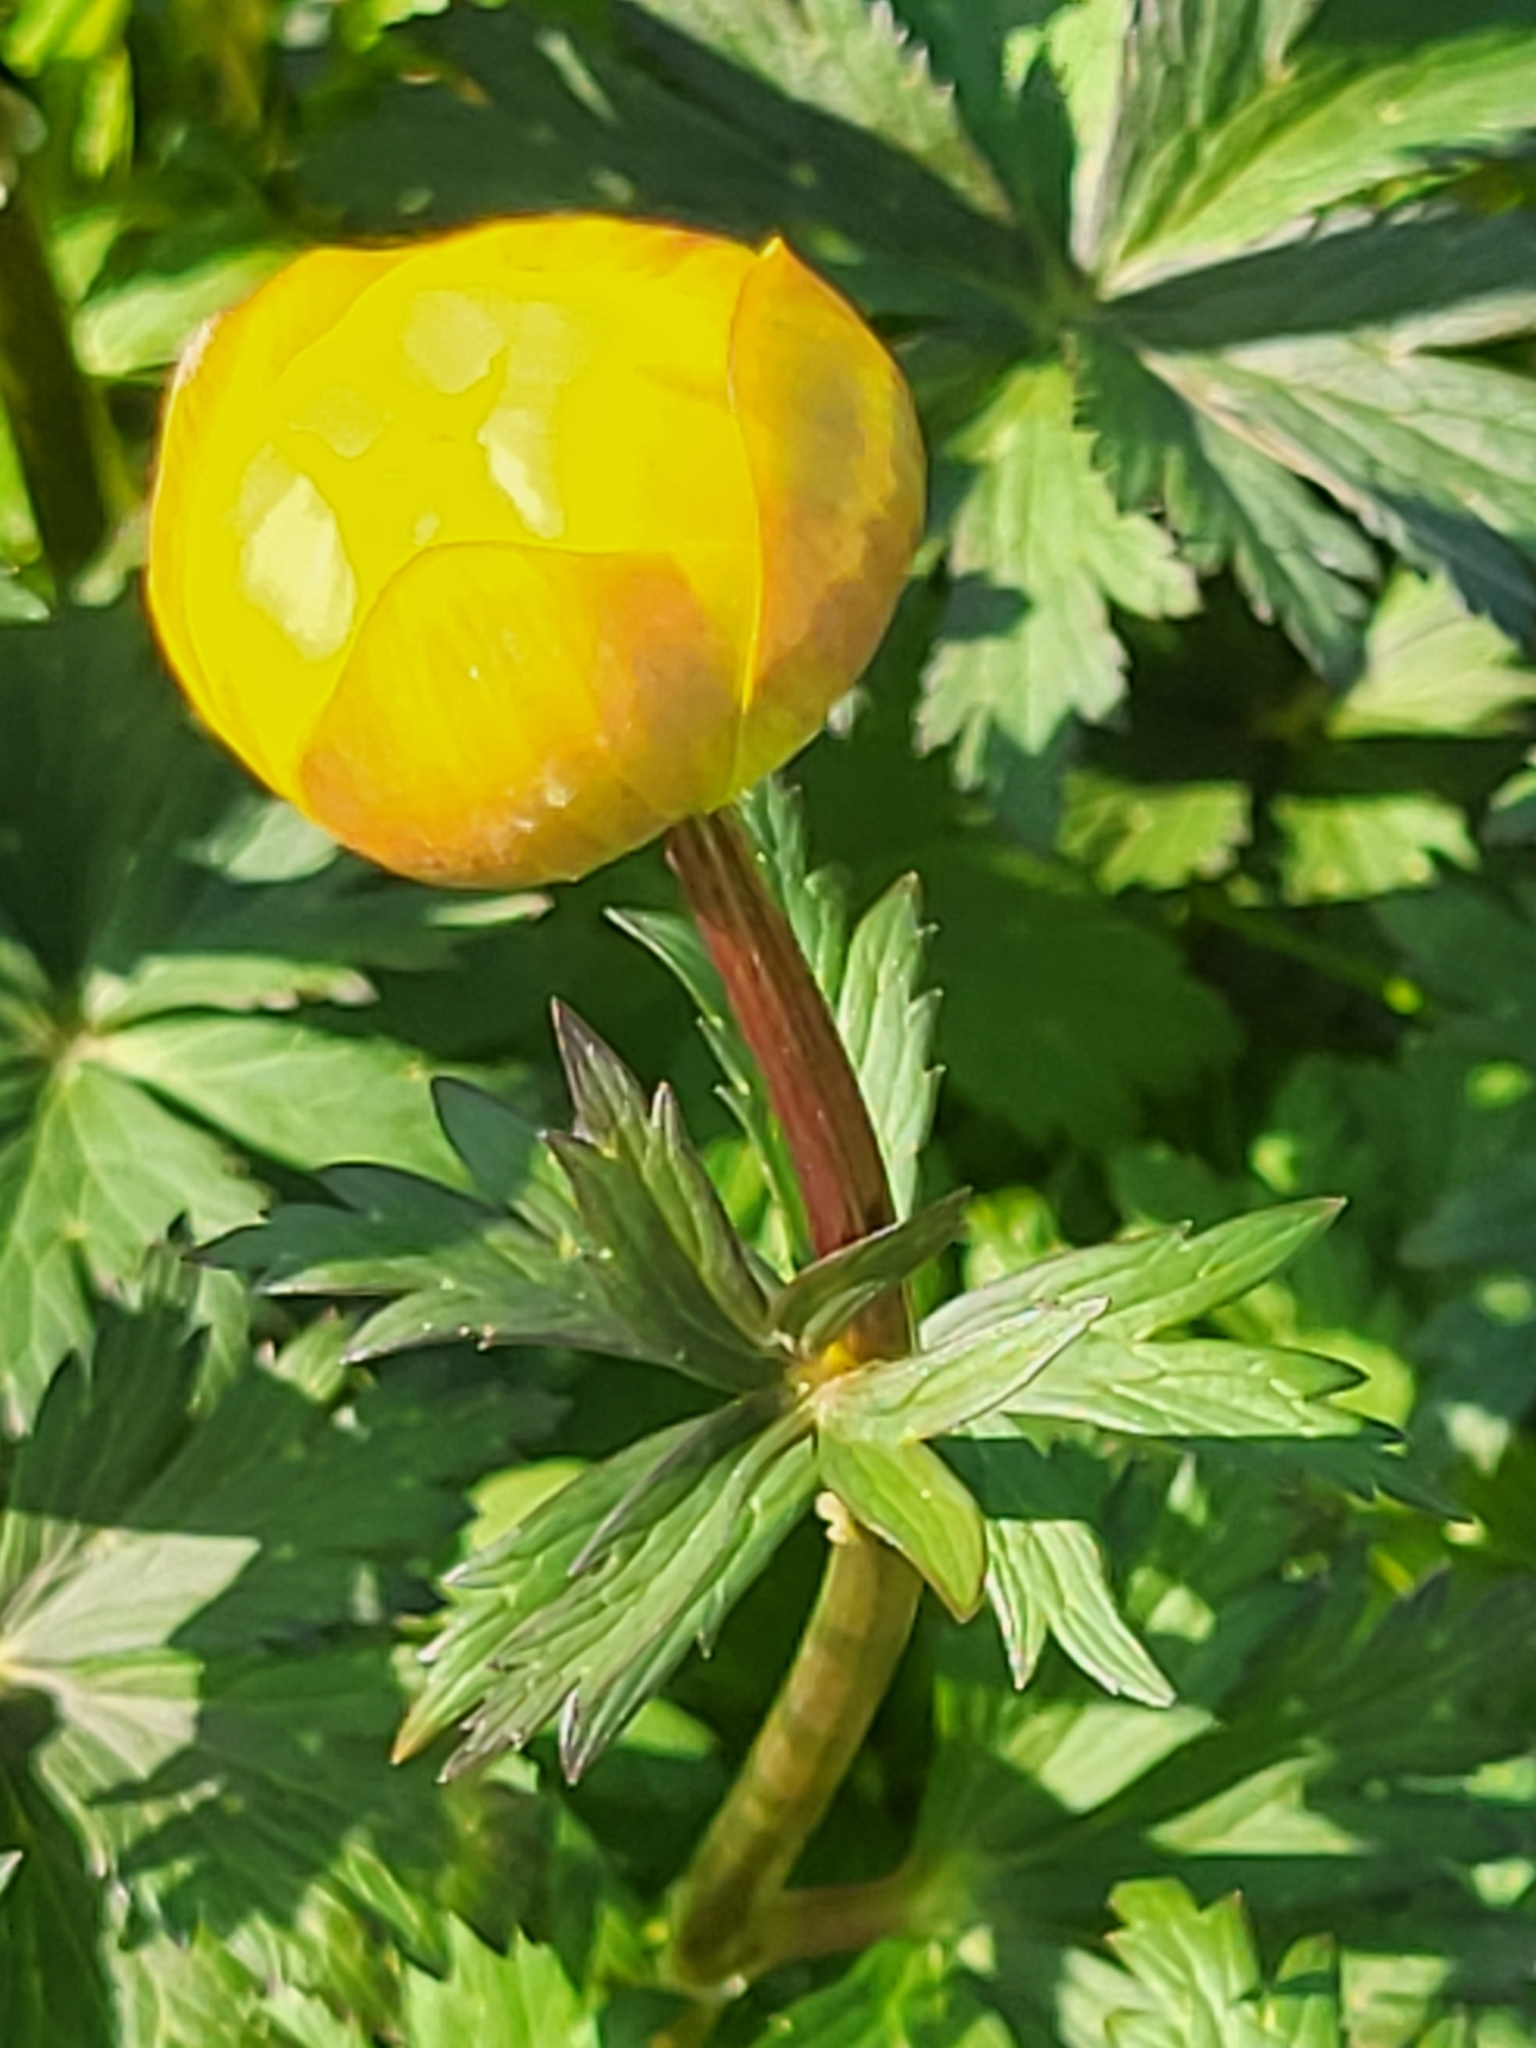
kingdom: Plantae
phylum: Tracheophyta
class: Magnoliopsida
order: Ranunculales
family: Ranunculaceae
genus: Trollius
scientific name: Trollius europaeus
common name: European globeflower
